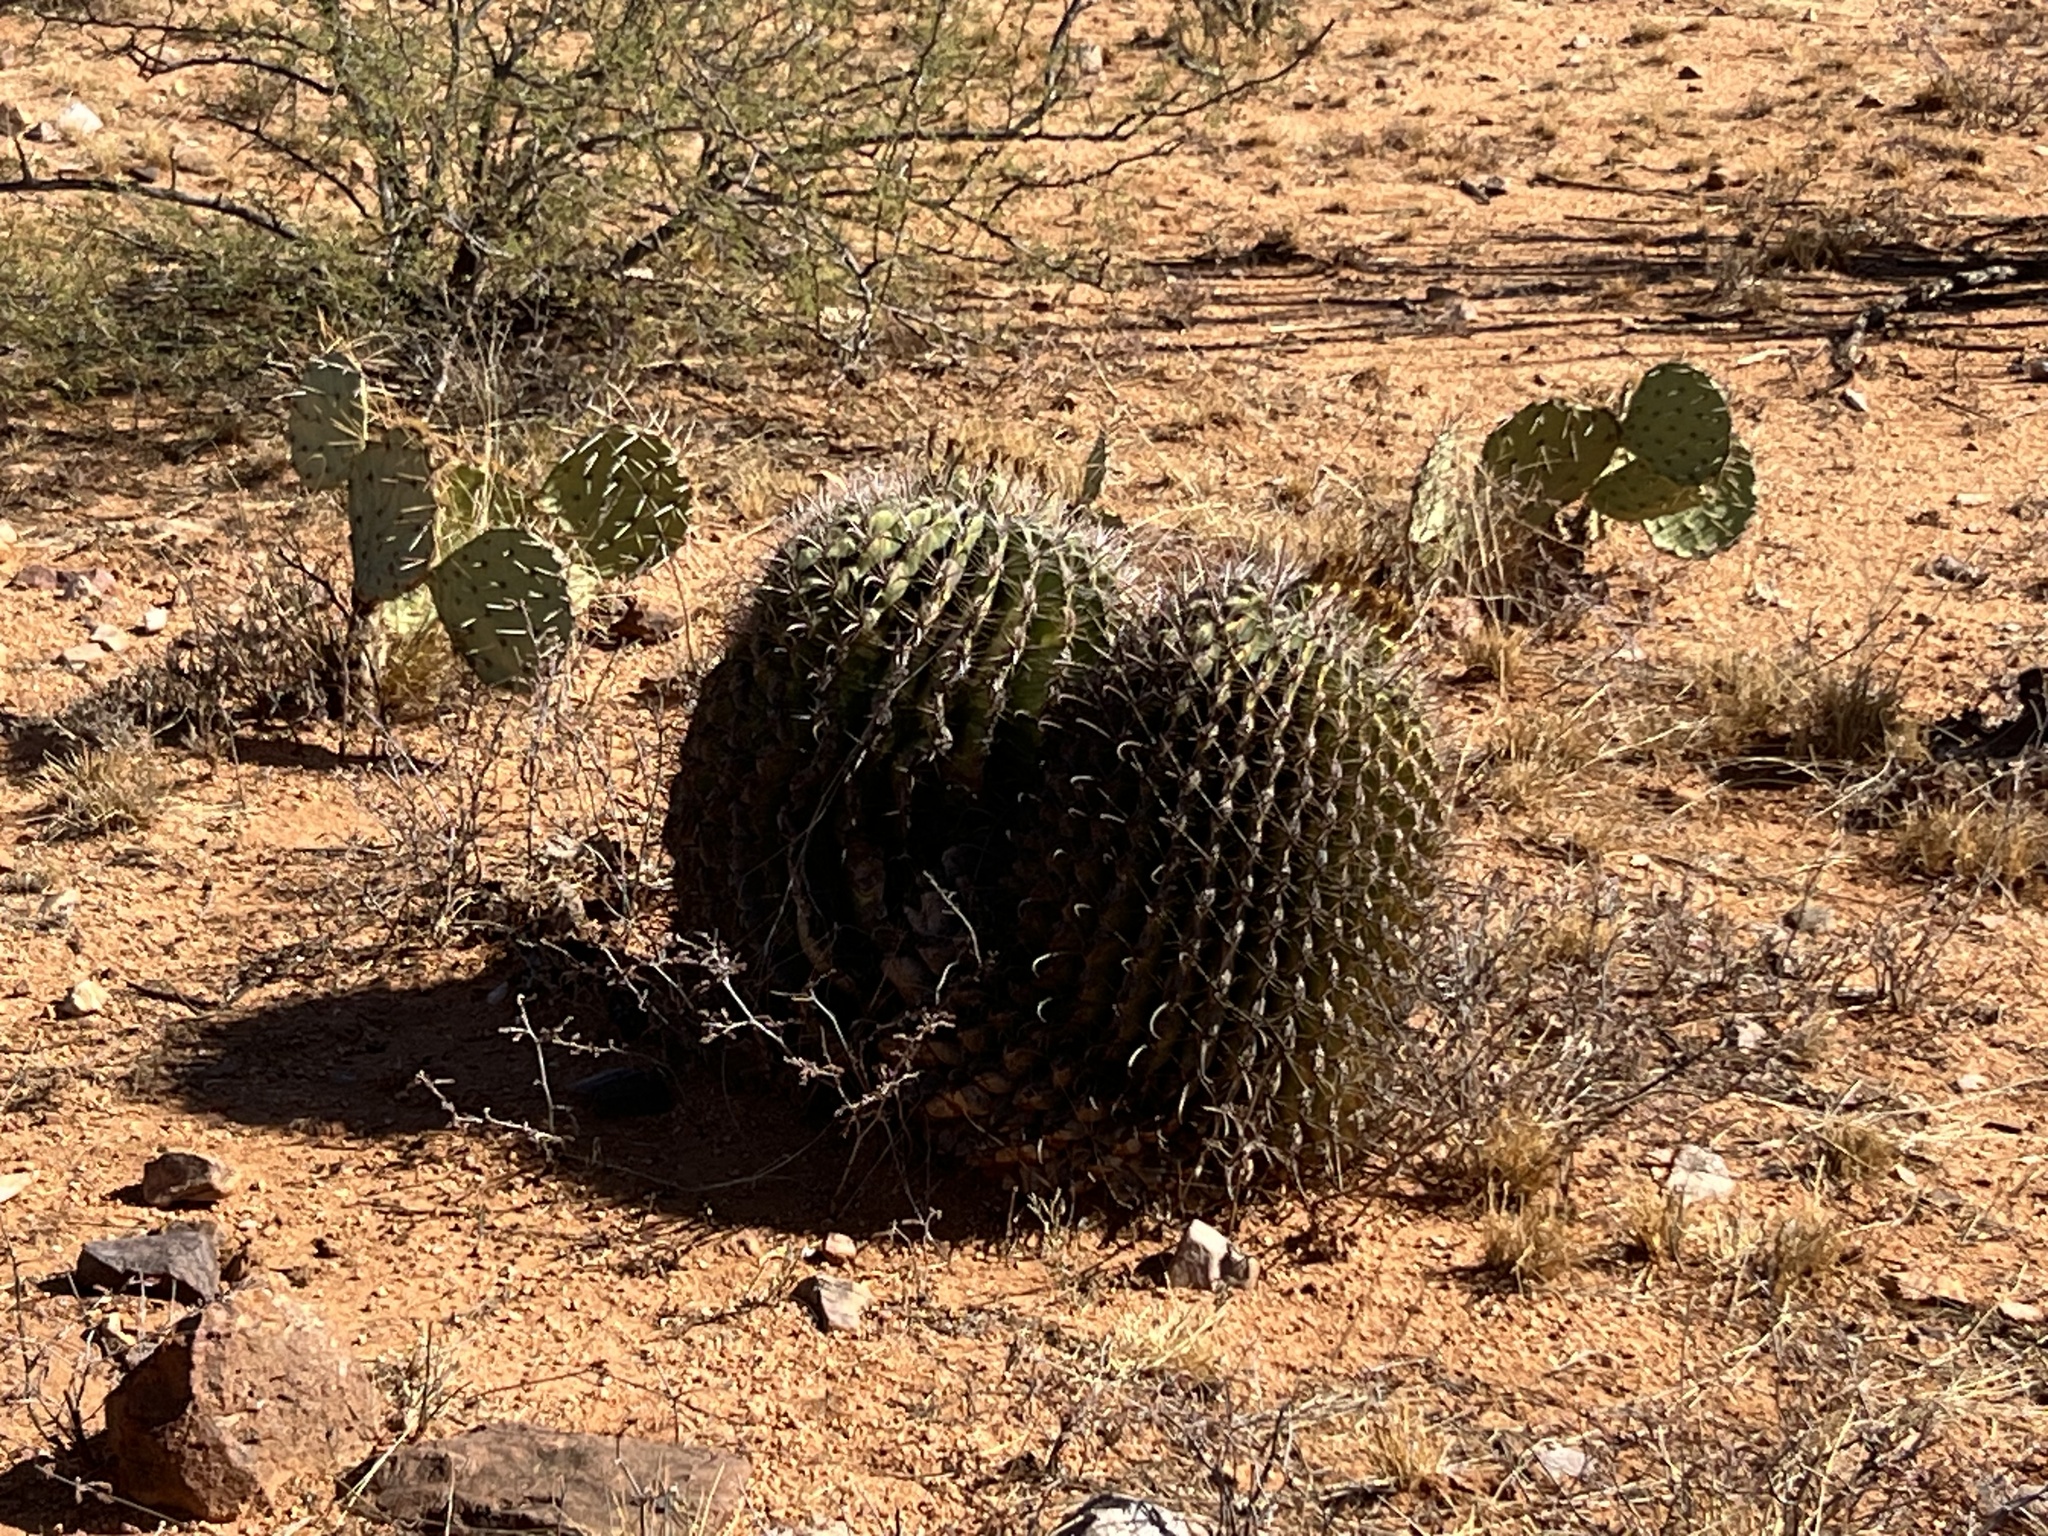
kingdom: Plantae
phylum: Tracheophyta
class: Magnoliopsida
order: Caryophyllales
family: Cactaceae
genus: Ferocactus
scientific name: Ferocactus wislizeni
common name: Candy barrel cactus
